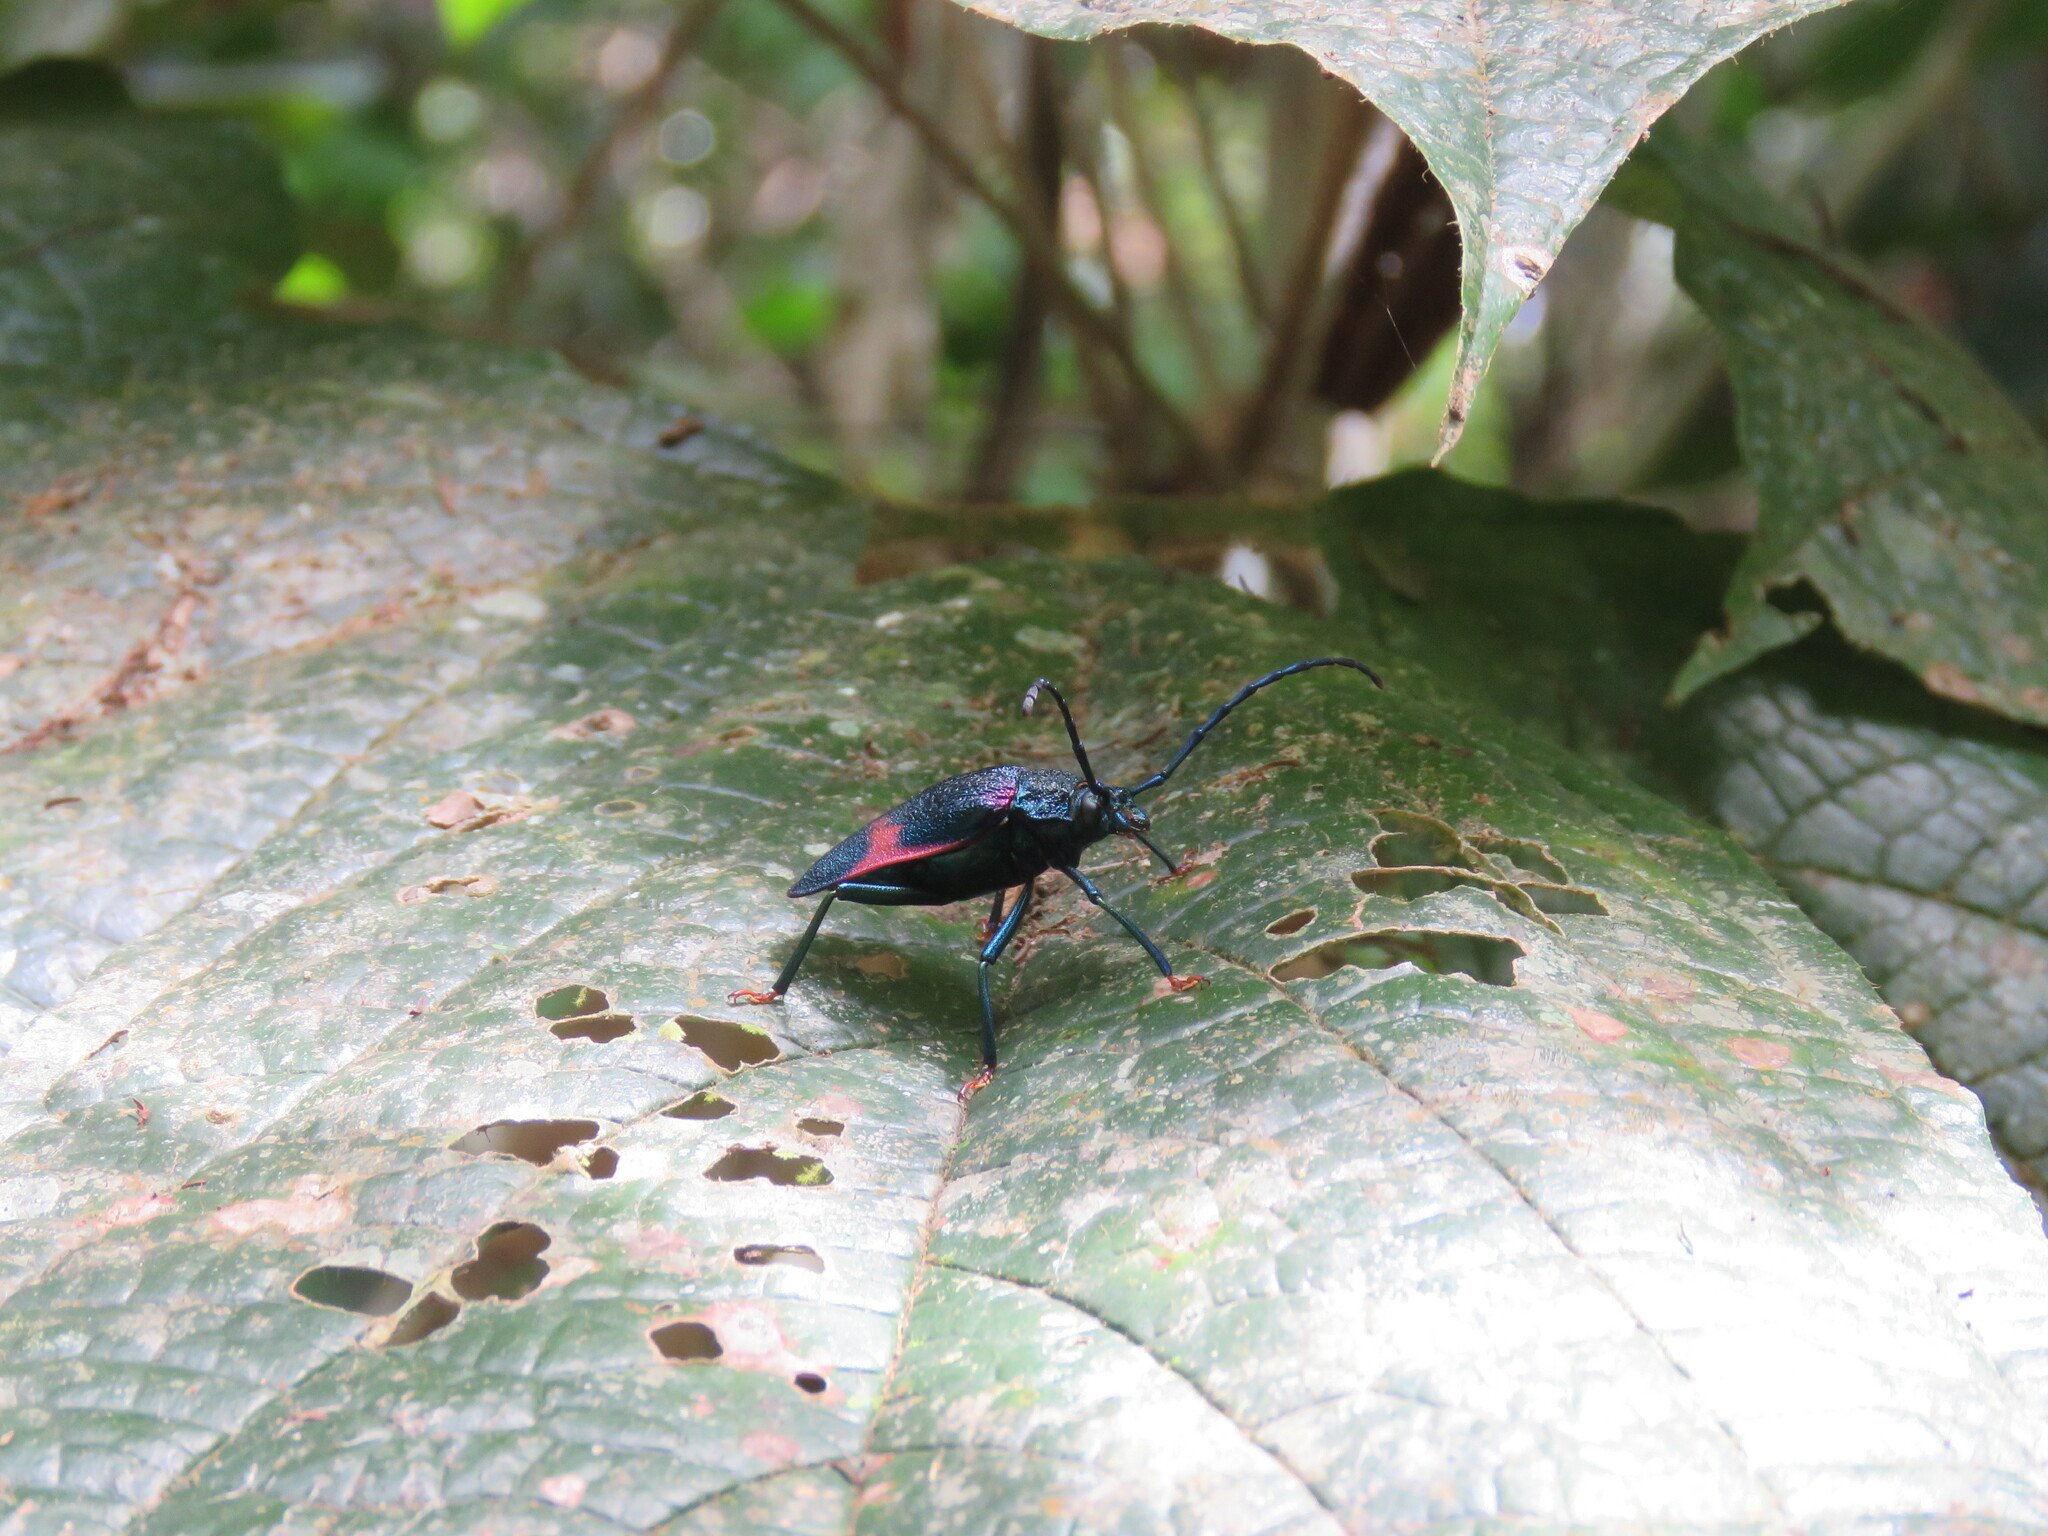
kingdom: Animalia
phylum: Arthropoda
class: Insecta
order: Coleoptera
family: Cerambycidae
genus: Hileolaspis
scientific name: Hileolaspis auratus
